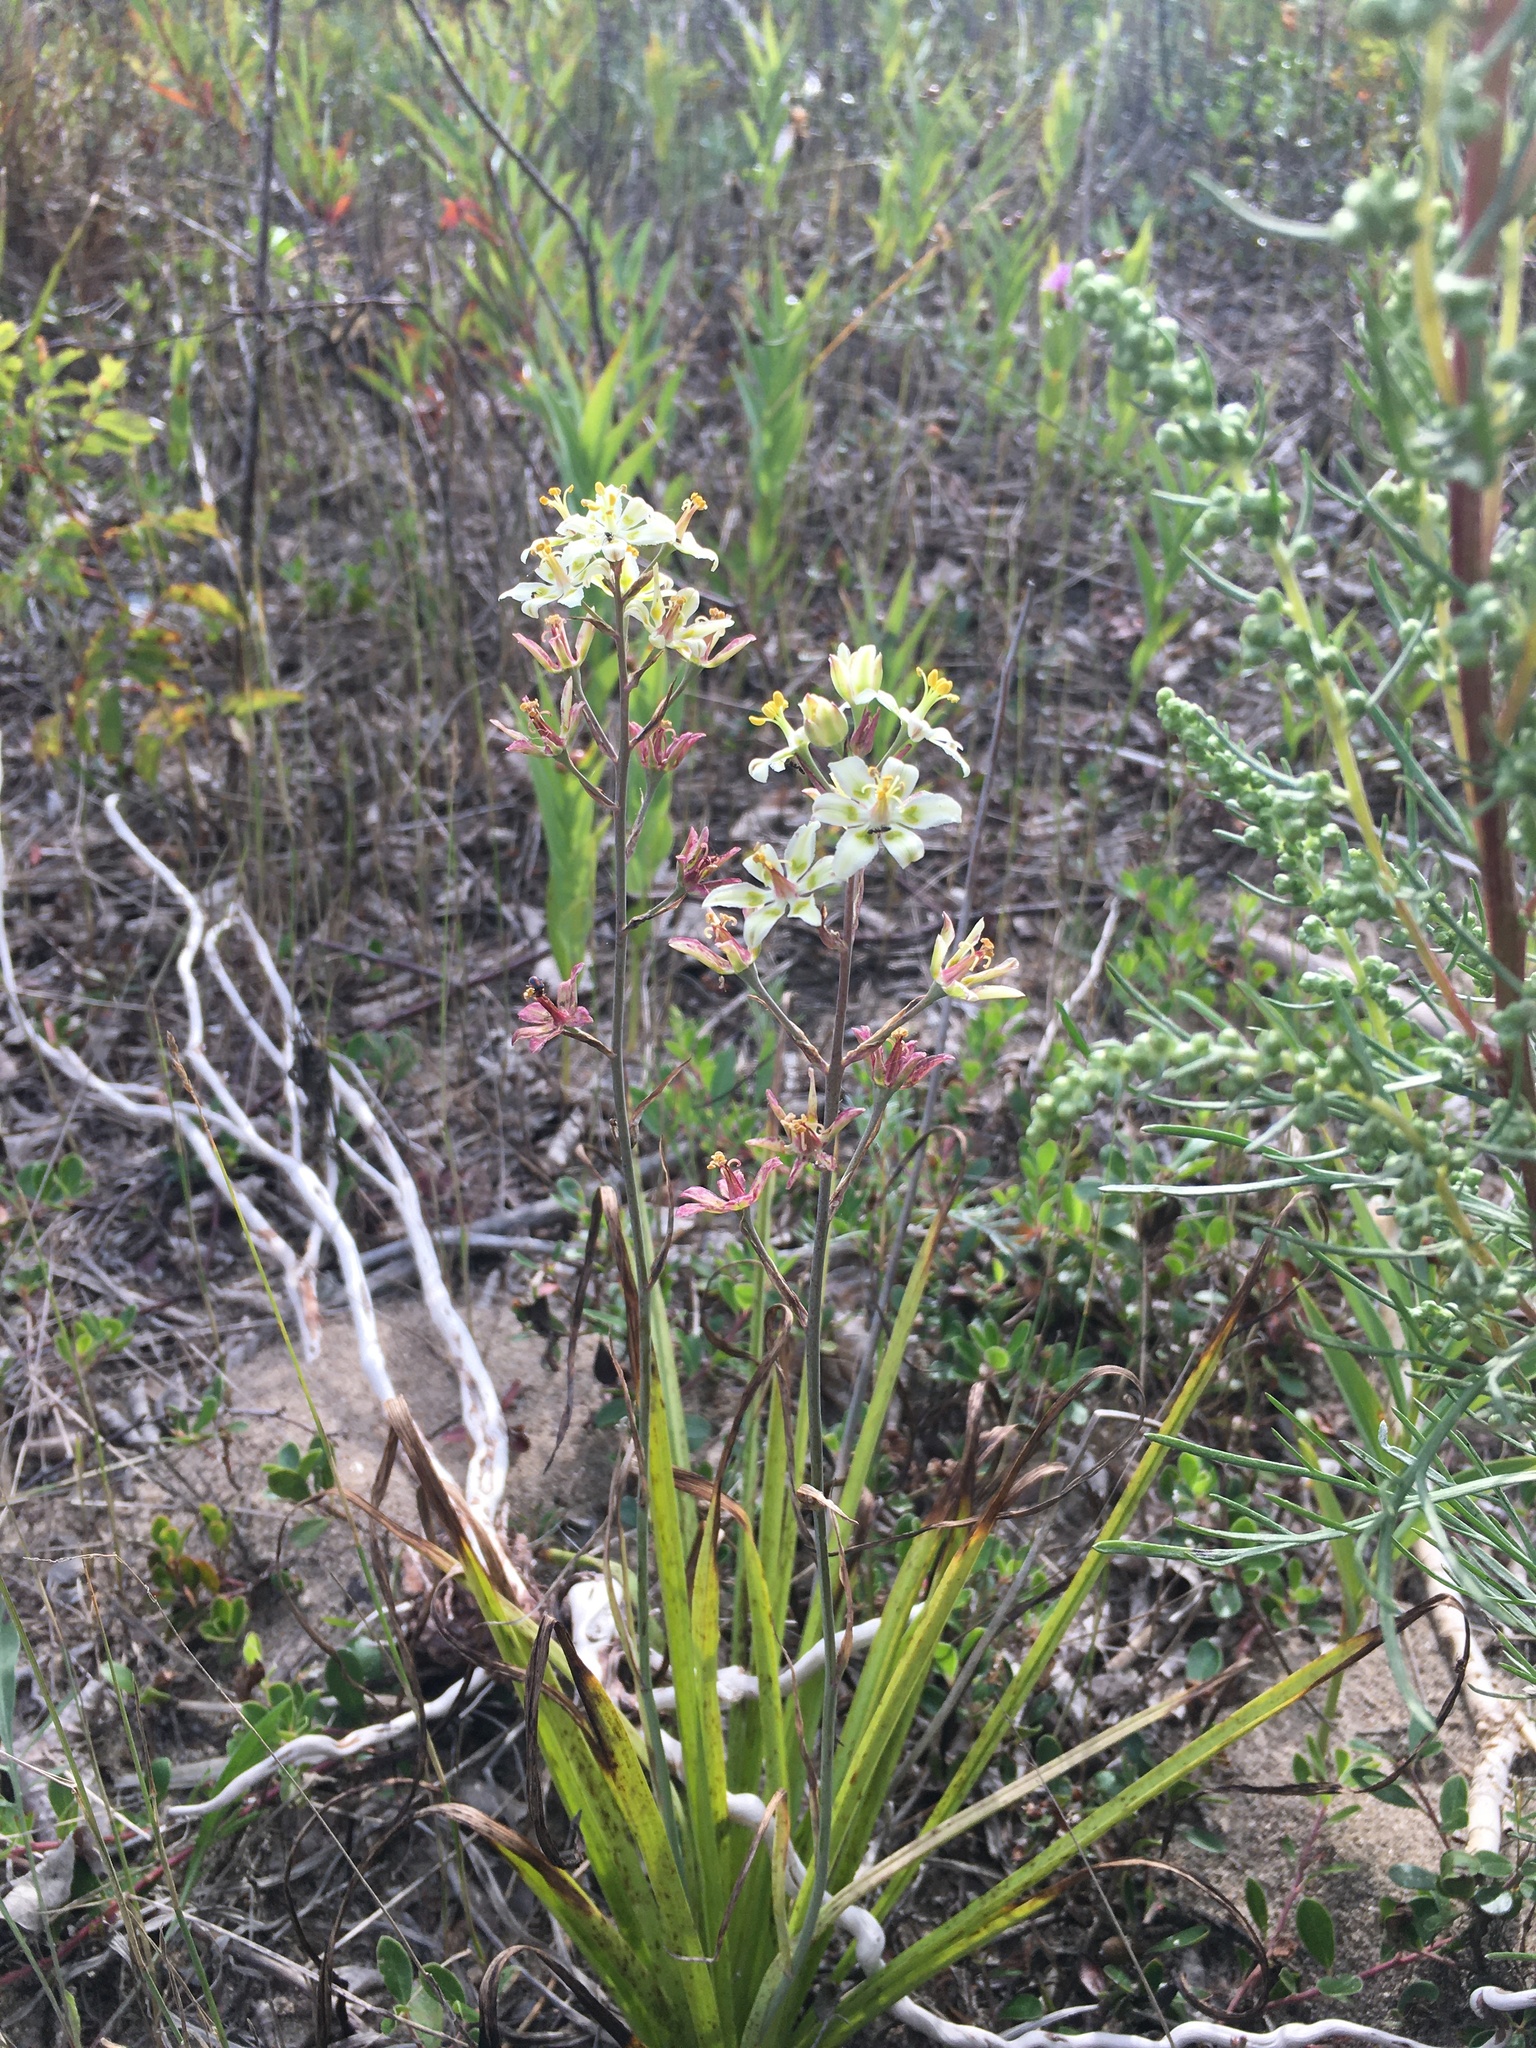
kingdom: Plantae
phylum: Tracheophyta
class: Liliopsida
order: Liliales
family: Melanthiaceae
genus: Anticlea
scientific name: Anticlea elegans
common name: Mountain death camas
